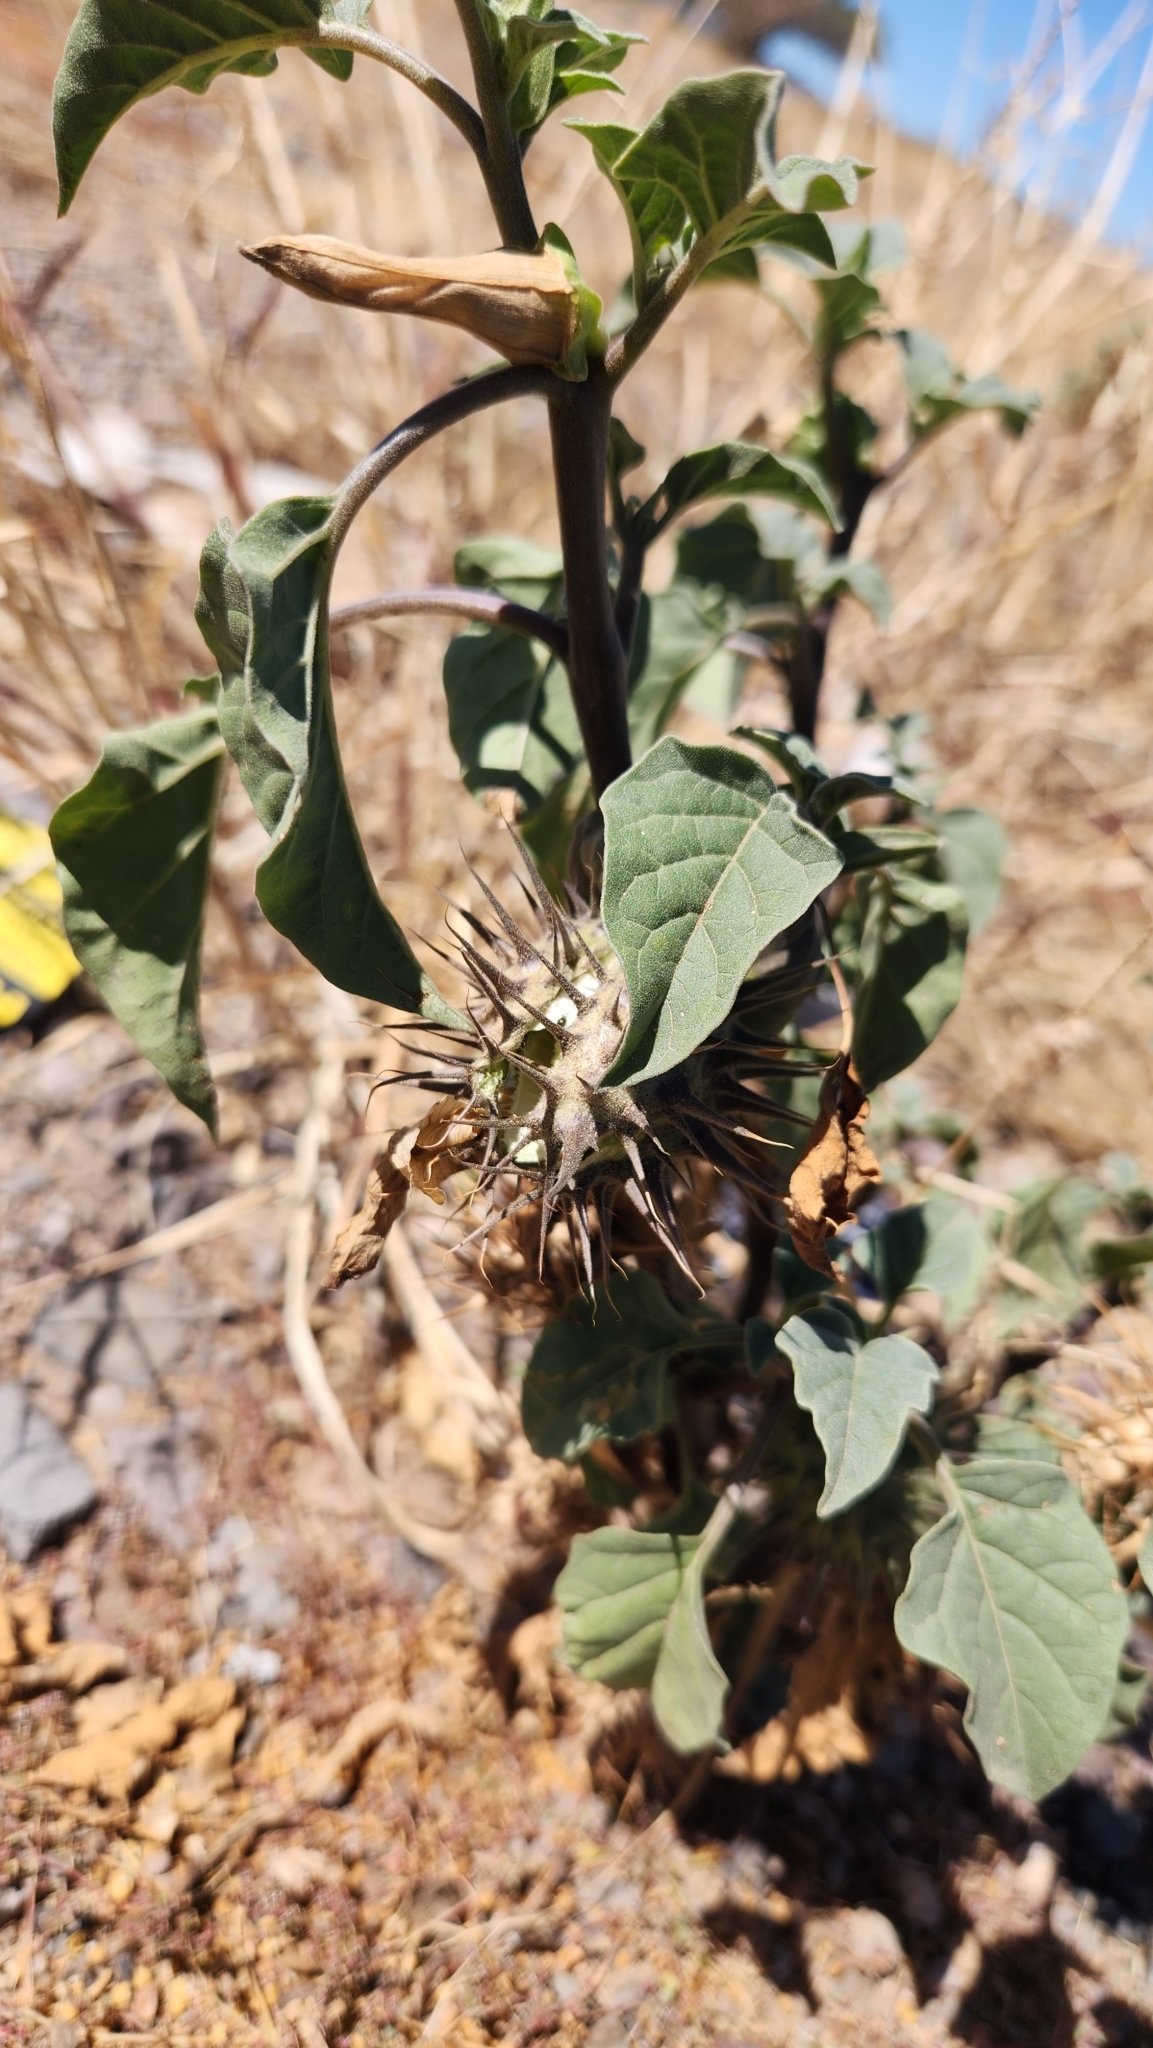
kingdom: Plantae
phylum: Tracheophyta
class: Magnoliopsida
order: Solanales
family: Solanaceae
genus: Datura
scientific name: Datura discolor
